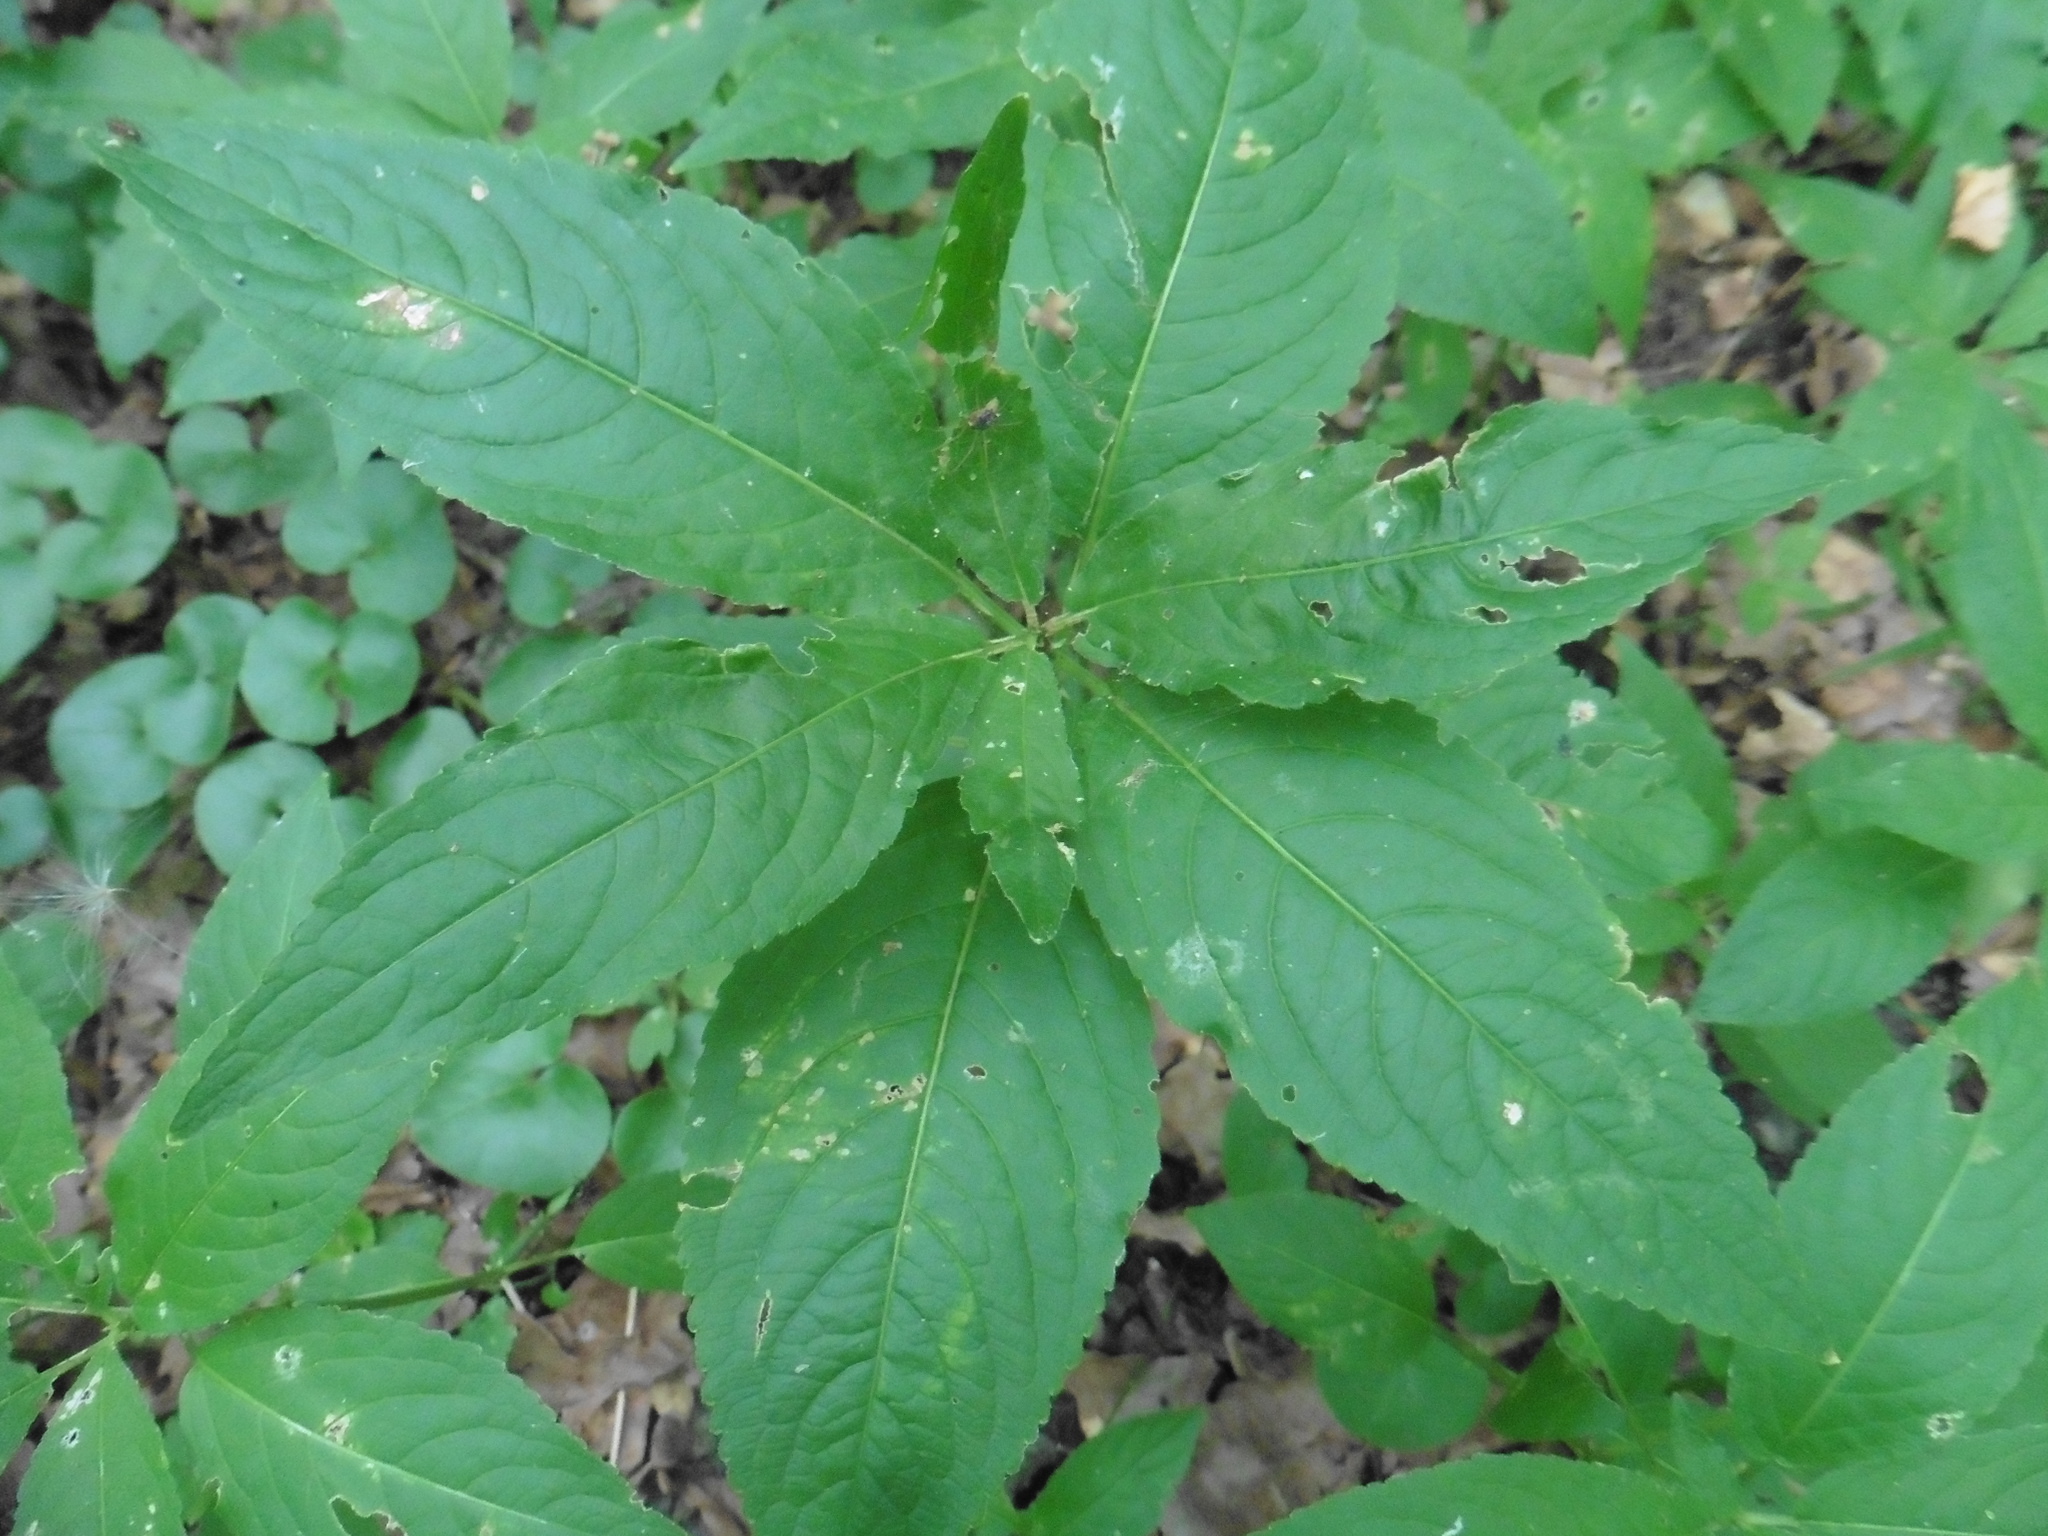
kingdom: Plantae
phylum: Tracheophyta
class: Magnoliopsida
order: Malpighiales
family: Euphorbiaceae
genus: Mercurialis
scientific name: Mercurialis perennis
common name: Dog mercury
